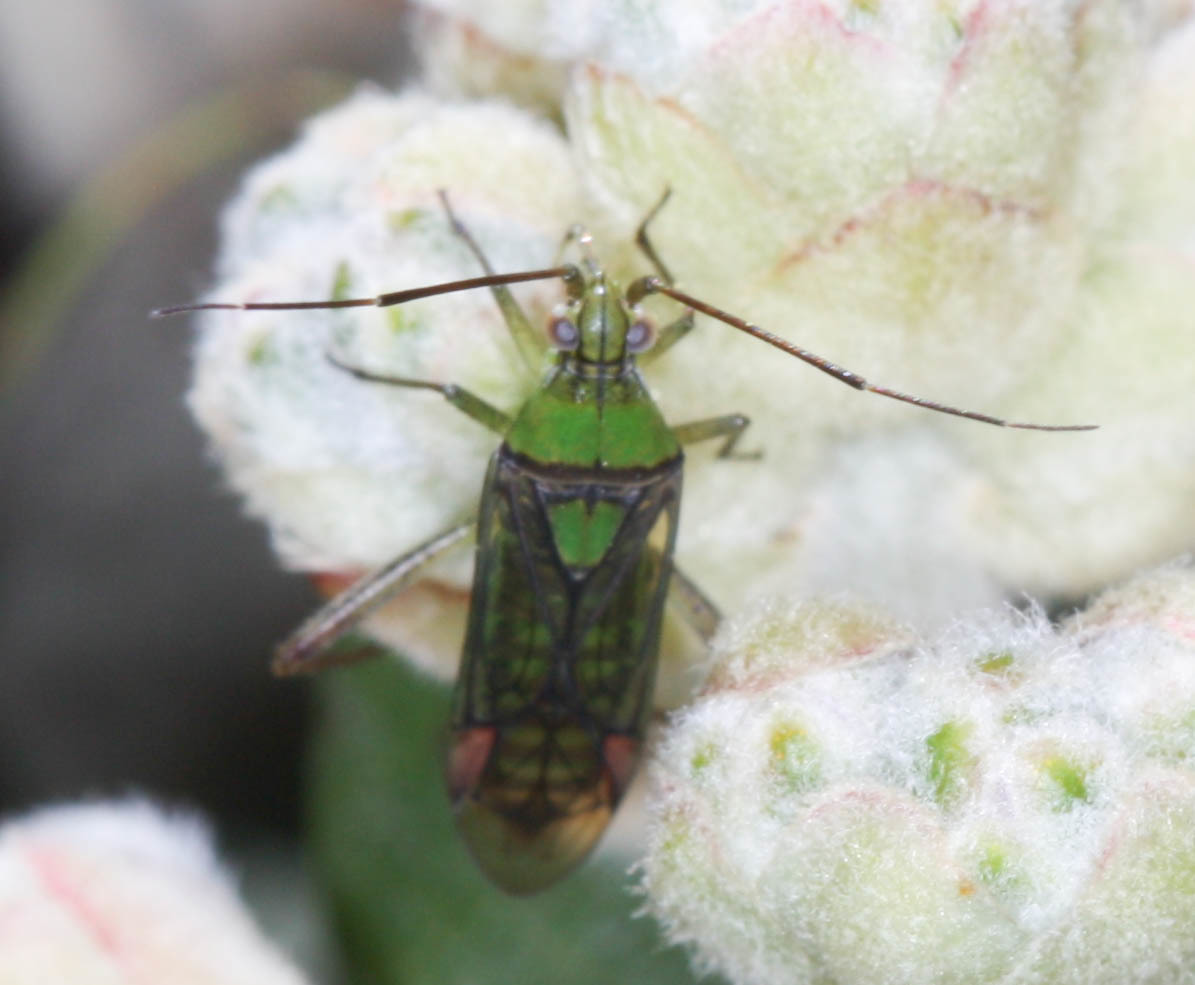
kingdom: Animalia
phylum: Arthropoda
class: Insecta
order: Hemiptera
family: Miridae
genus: Hyalopeplus
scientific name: Hyalopeplus pellucidus
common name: Plant bug
